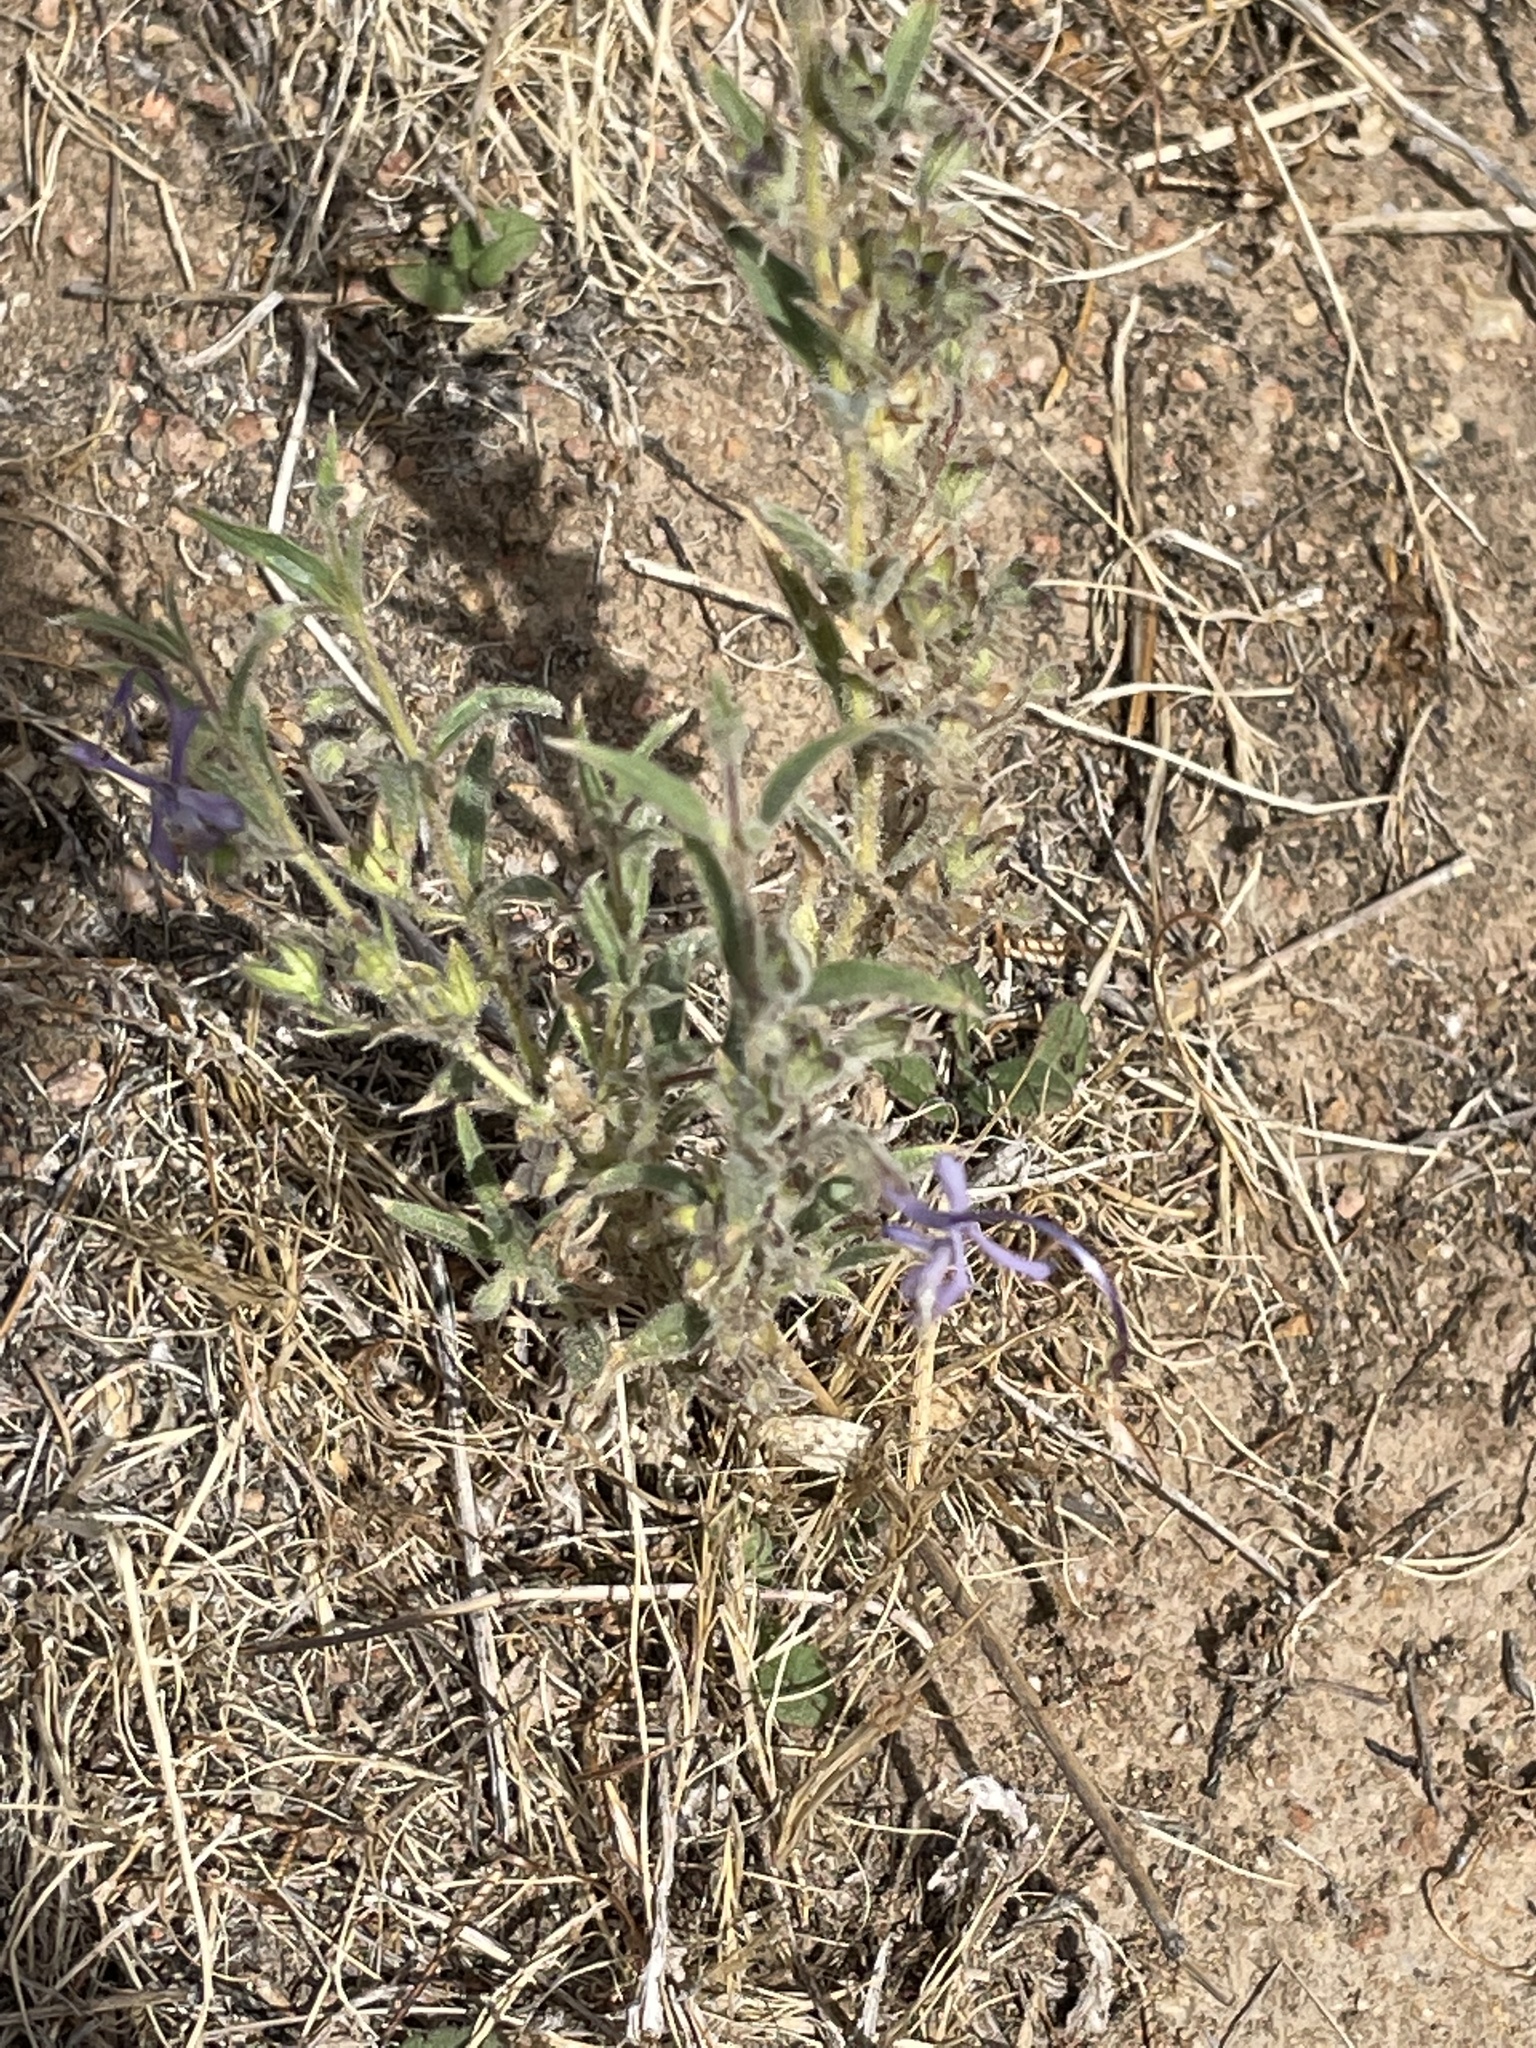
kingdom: Plantae
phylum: Tracheophyta
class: Magnoliopsida
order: Lamiales
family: Lamiaceae
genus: Trichostema
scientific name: Trichostema lanceolatum
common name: Vinegar-weed
